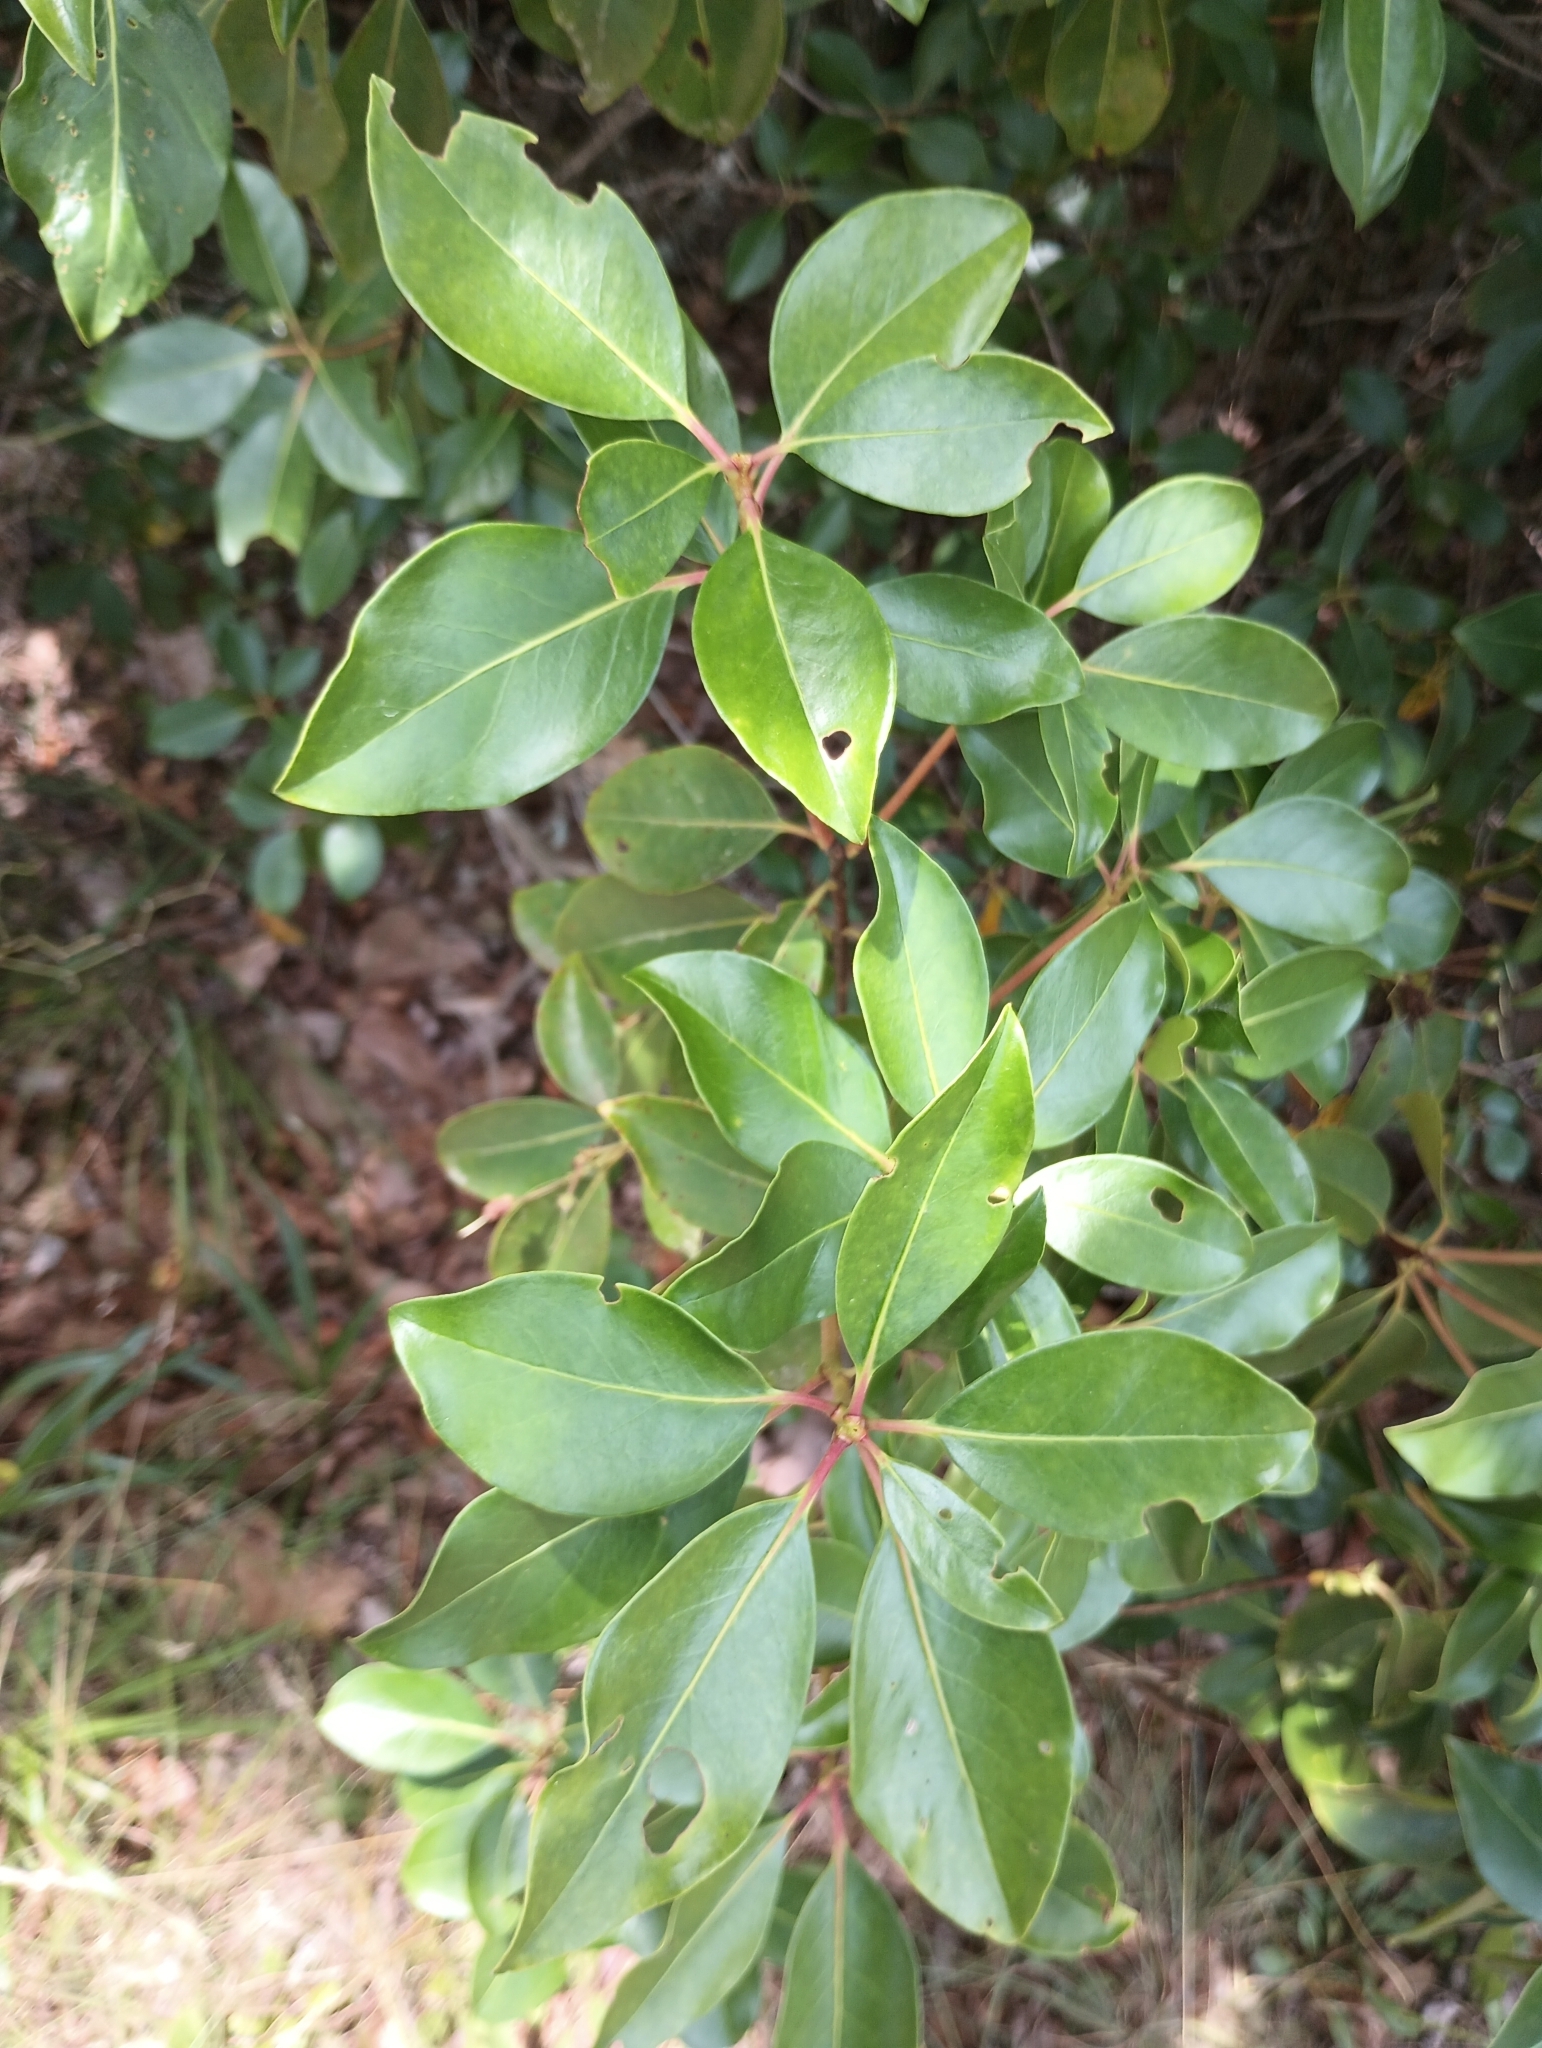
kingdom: Plantae
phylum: Tracheophyta
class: Magnoliopsida
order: Ericales
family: Ericaceae
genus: Kalmia
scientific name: Kalmia latifolia
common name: Mountain-laurel
